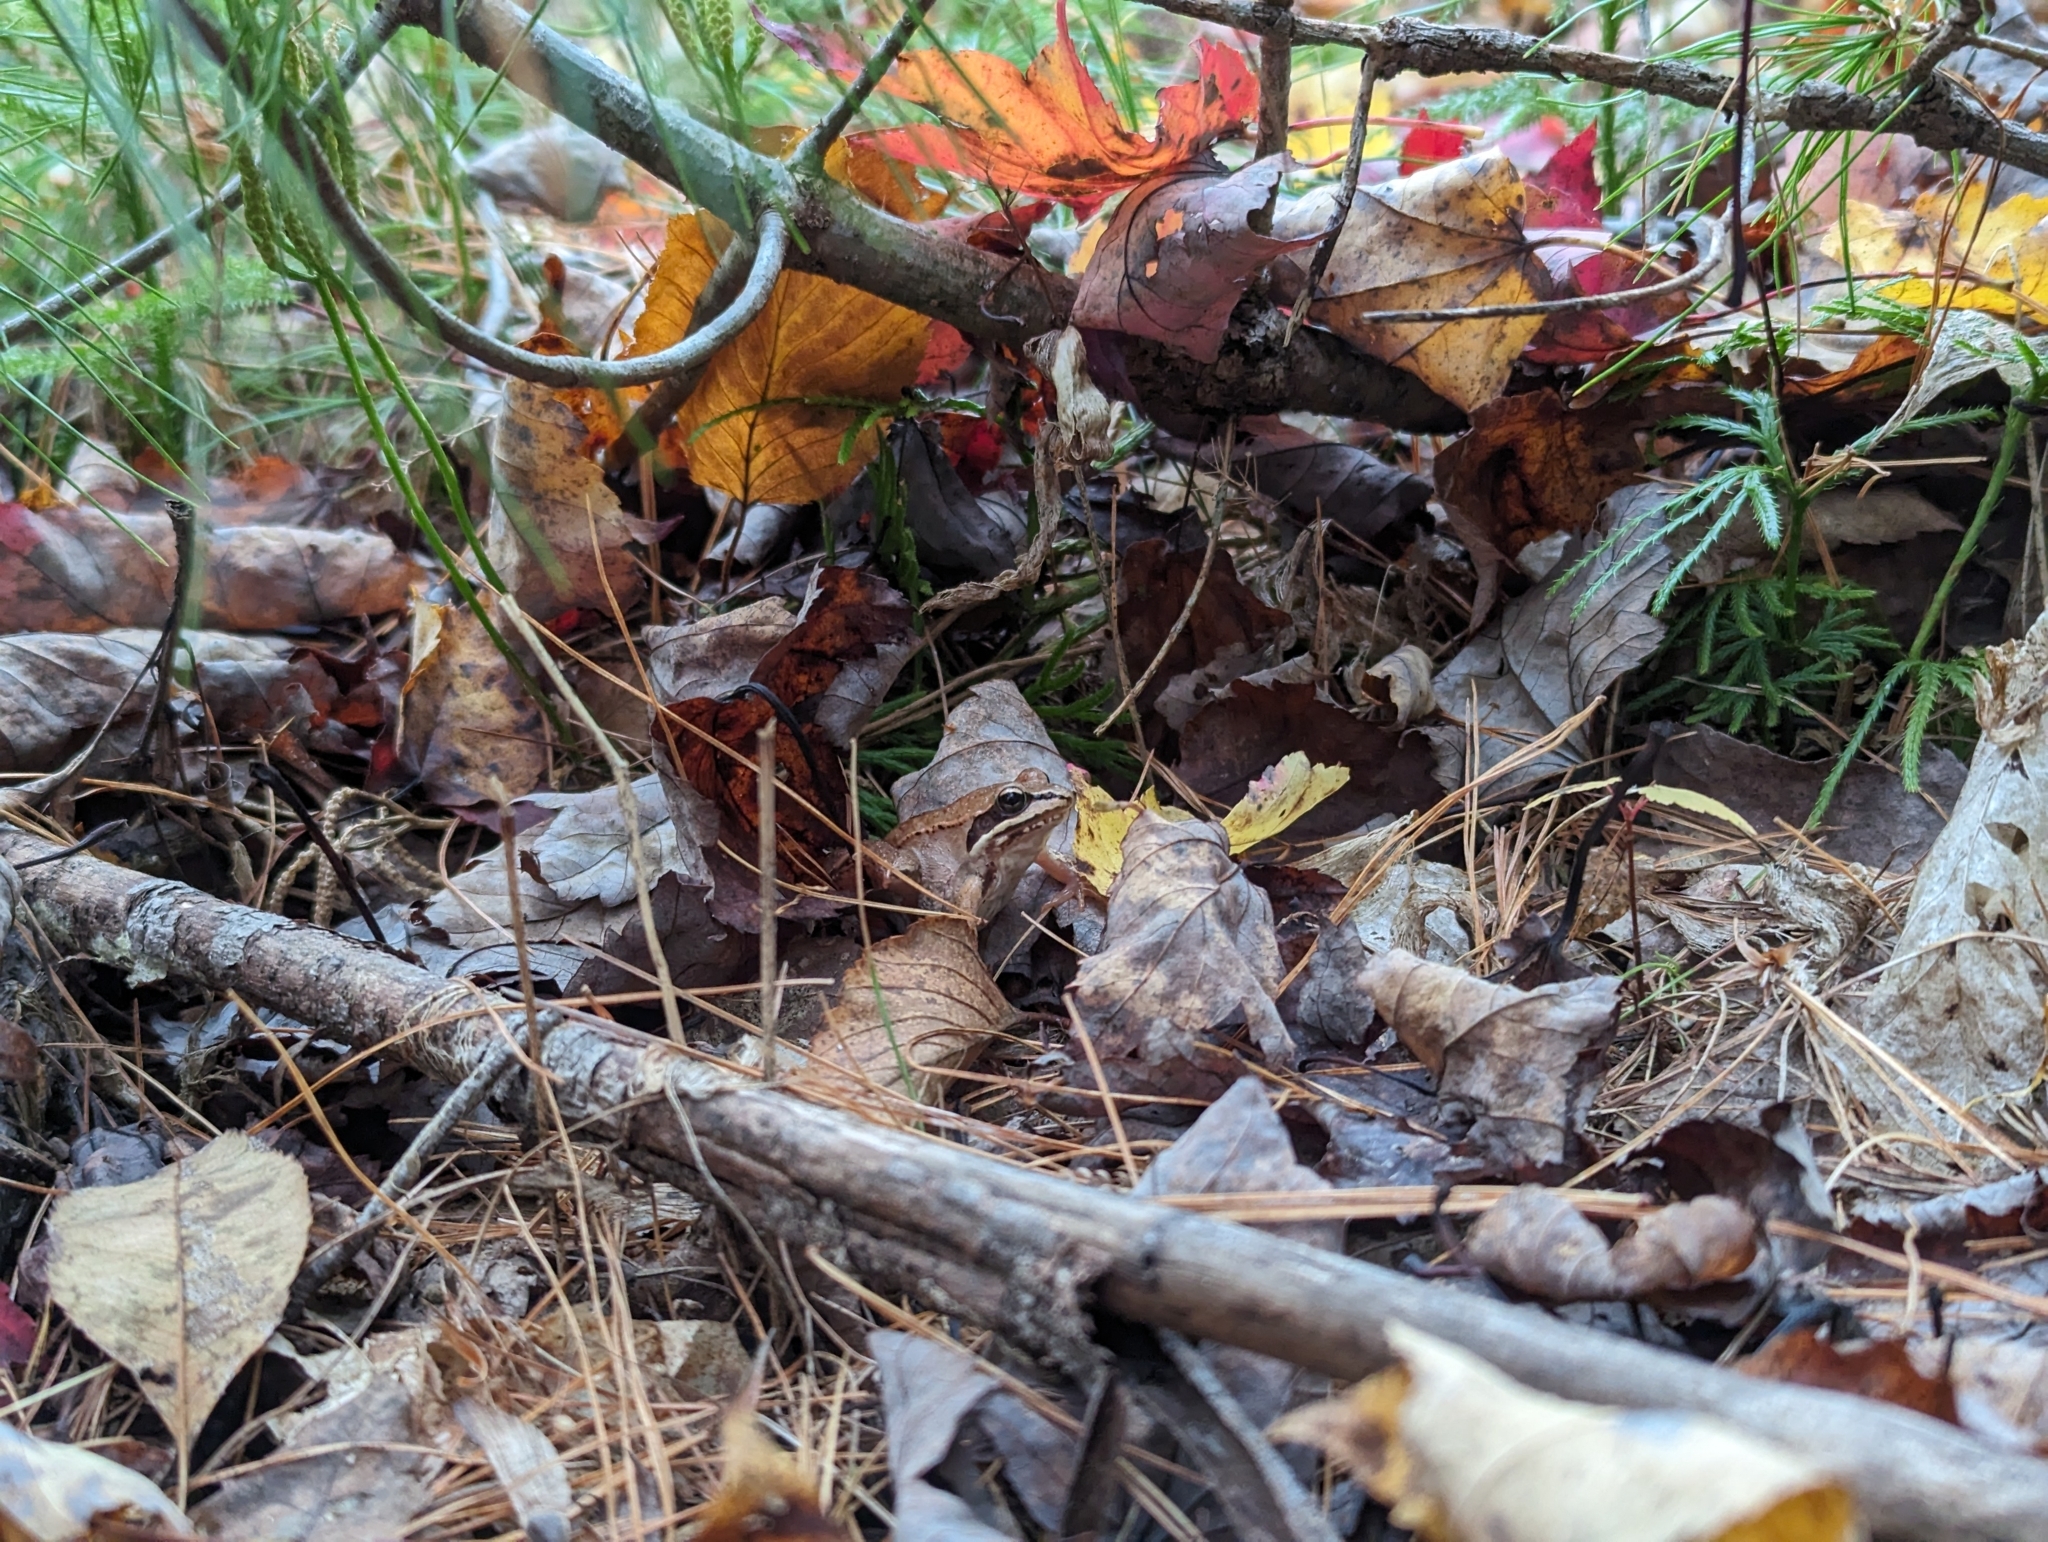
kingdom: Animalia
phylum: Chordata
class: Amphibia
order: Anura
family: Ranidae
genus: Lithobates
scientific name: Lithobates sylvaticus
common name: Wood frog
